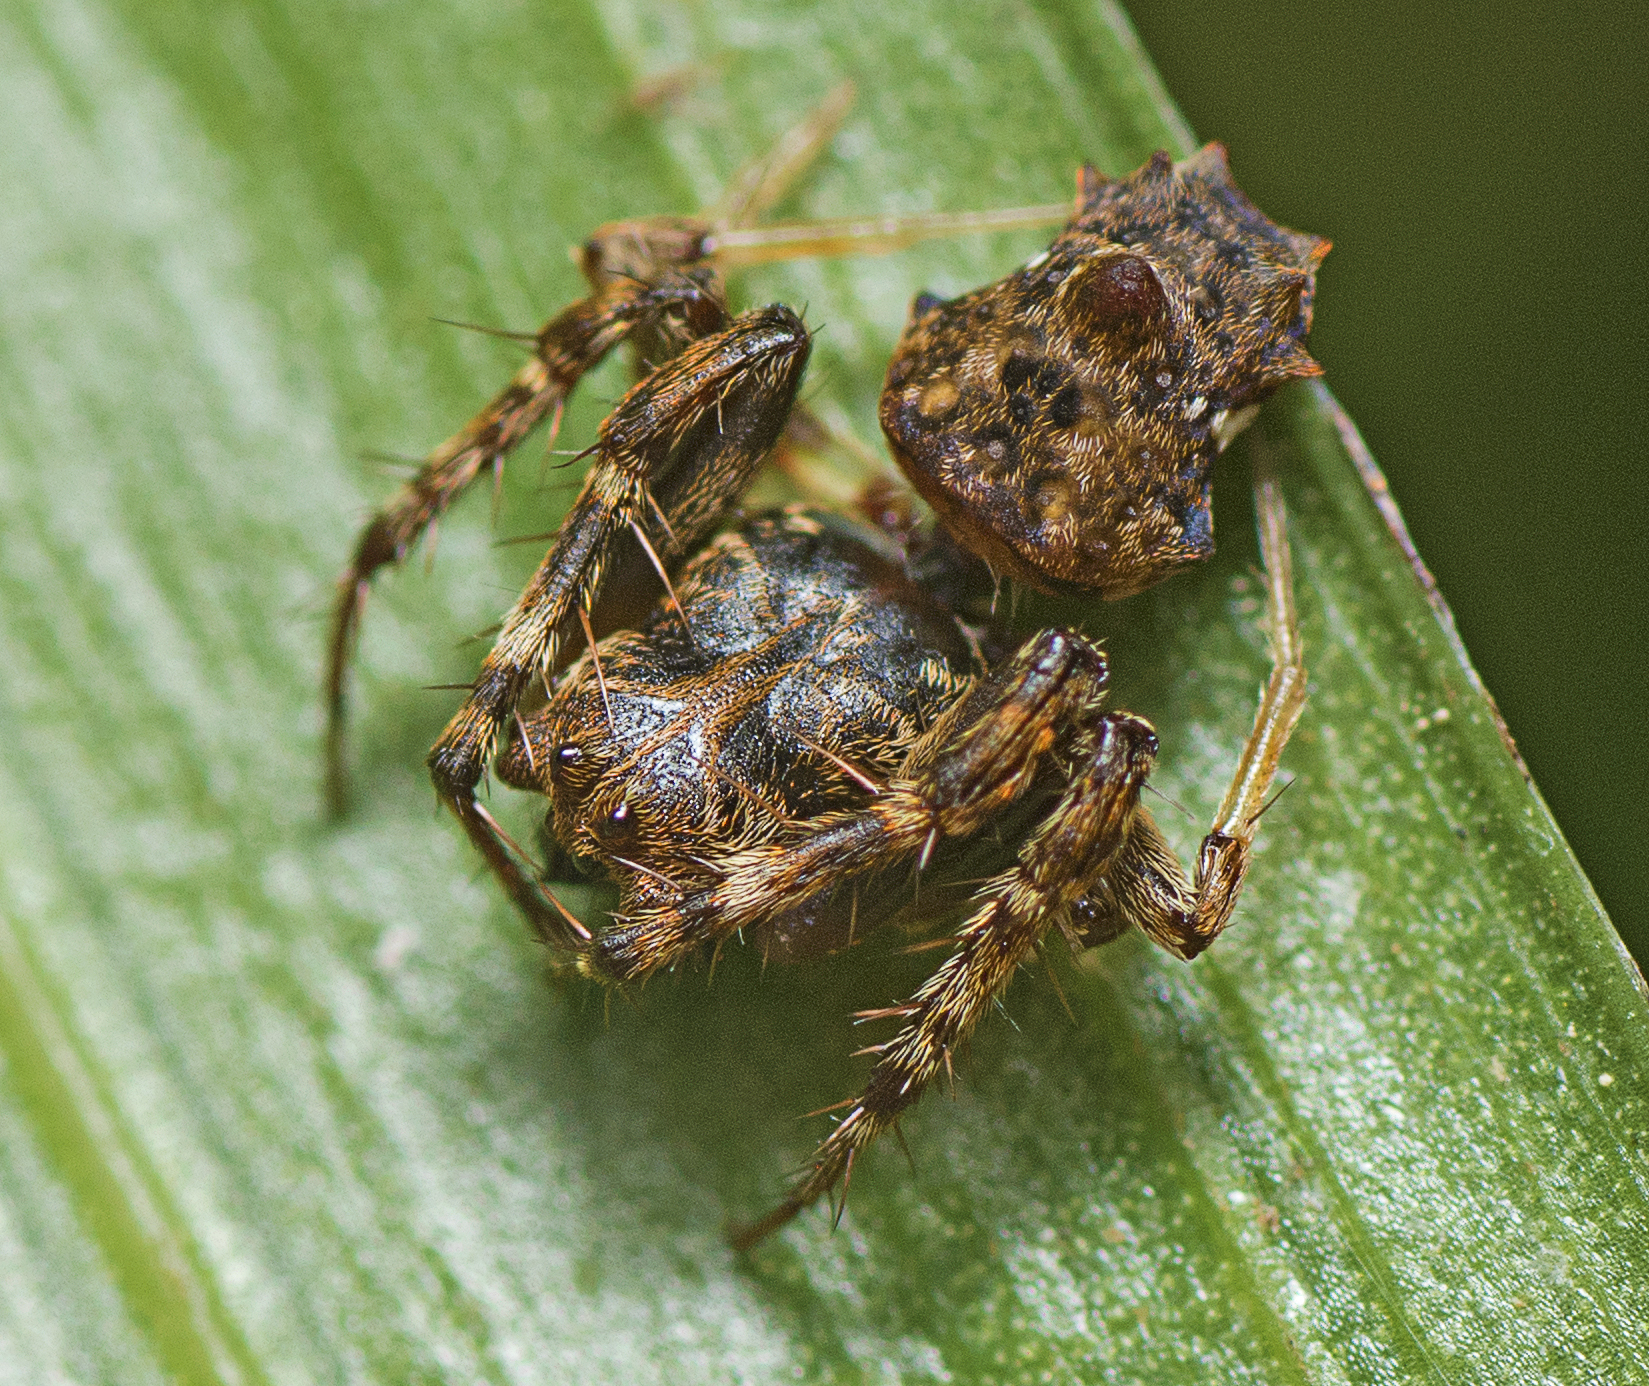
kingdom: Animalia
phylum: Arthropoda
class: Arachnida
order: Araneae
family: Arkyidae
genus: Arkys
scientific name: Arkys dilatatus
